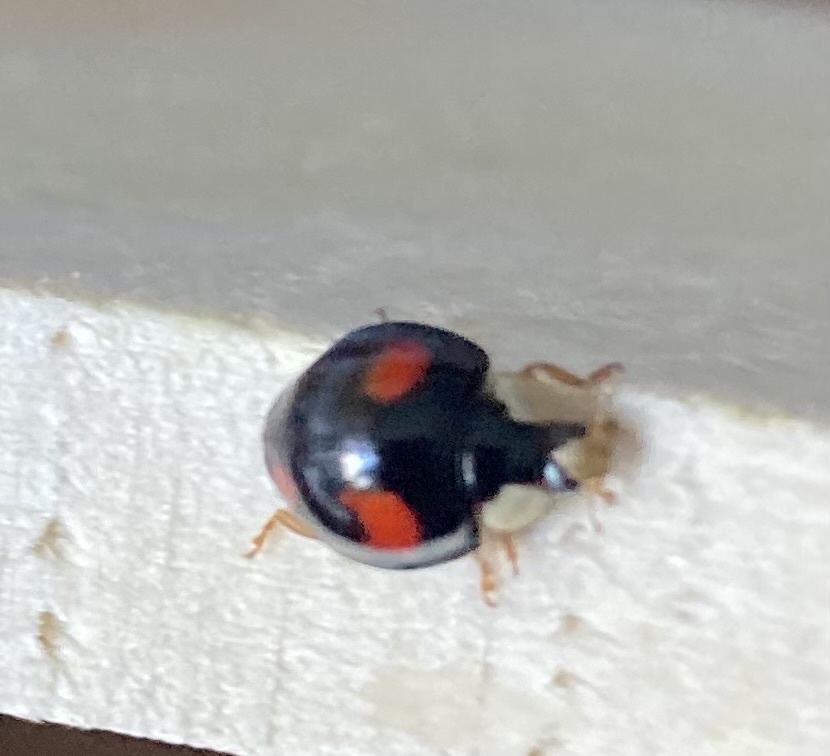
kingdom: Animalia
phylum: Arthropoda
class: Insecta
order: Coleoptera
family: Coccinellidae
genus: Harmonia
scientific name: Harmonia axyridis
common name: Harlequin ladybird
